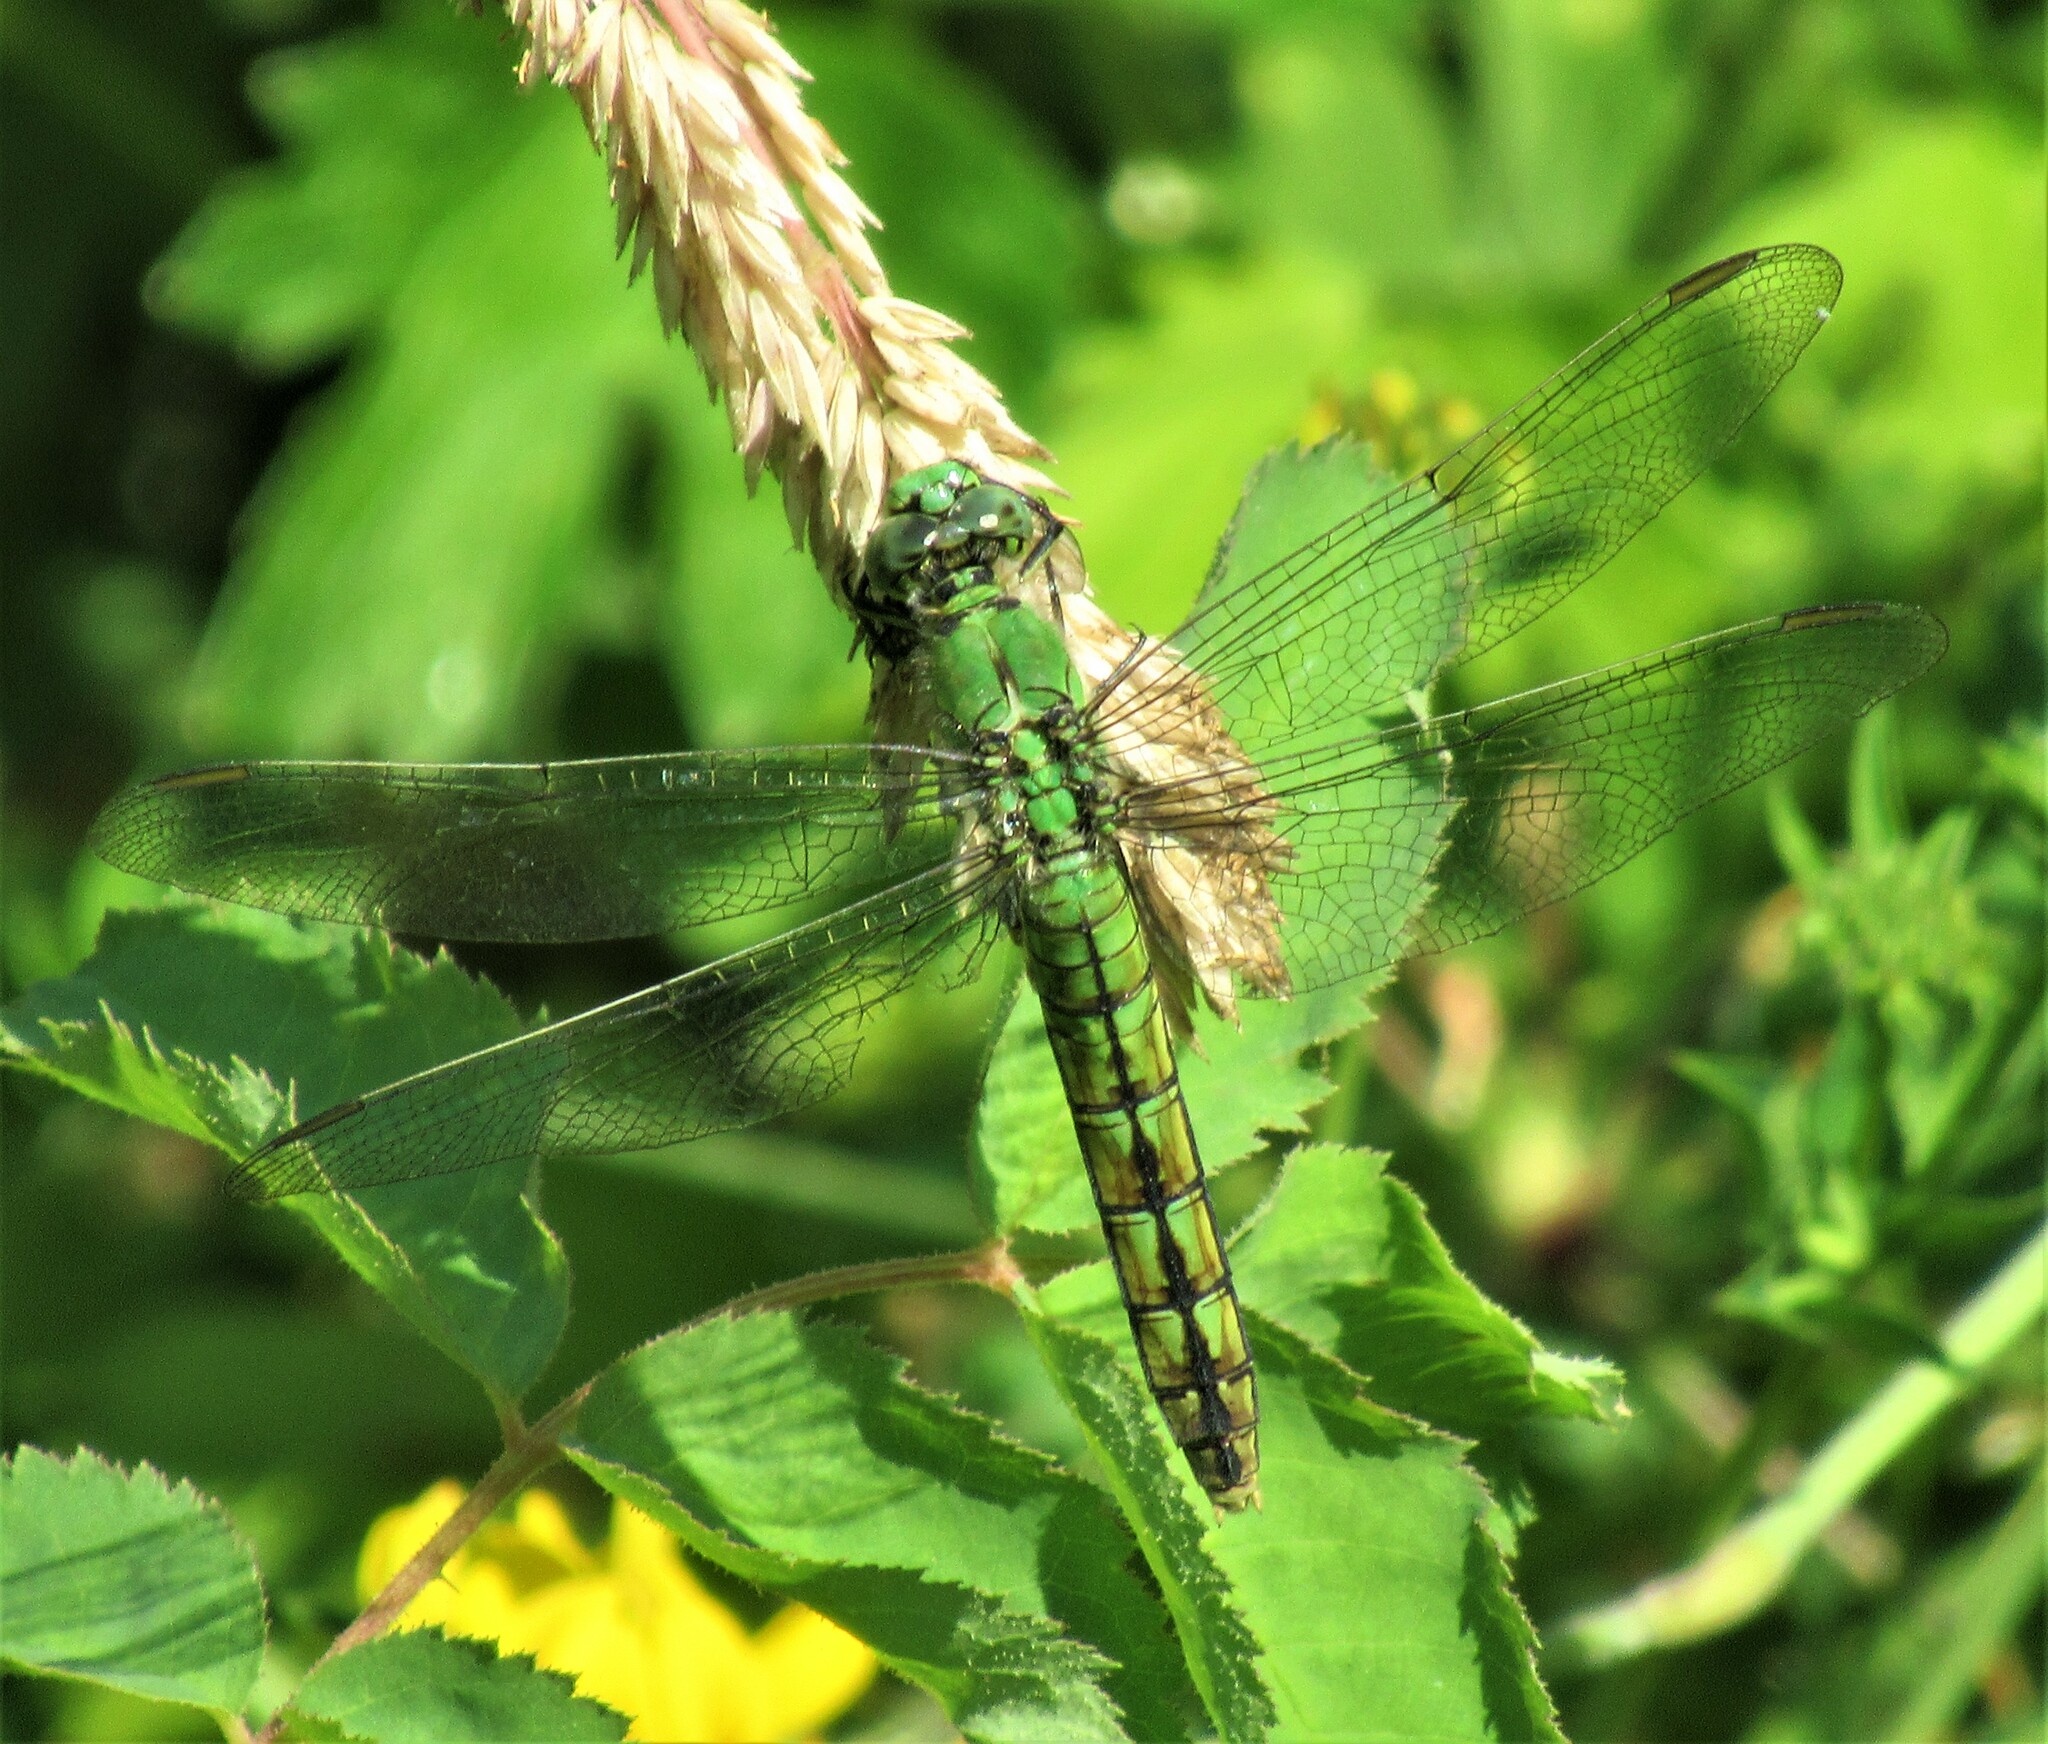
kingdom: Animalia
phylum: Arthropoda
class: Insecta
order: Odonata
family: Libellulidae
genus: Erythemis
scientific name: Erythemis collocata
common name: Western pondhawk
